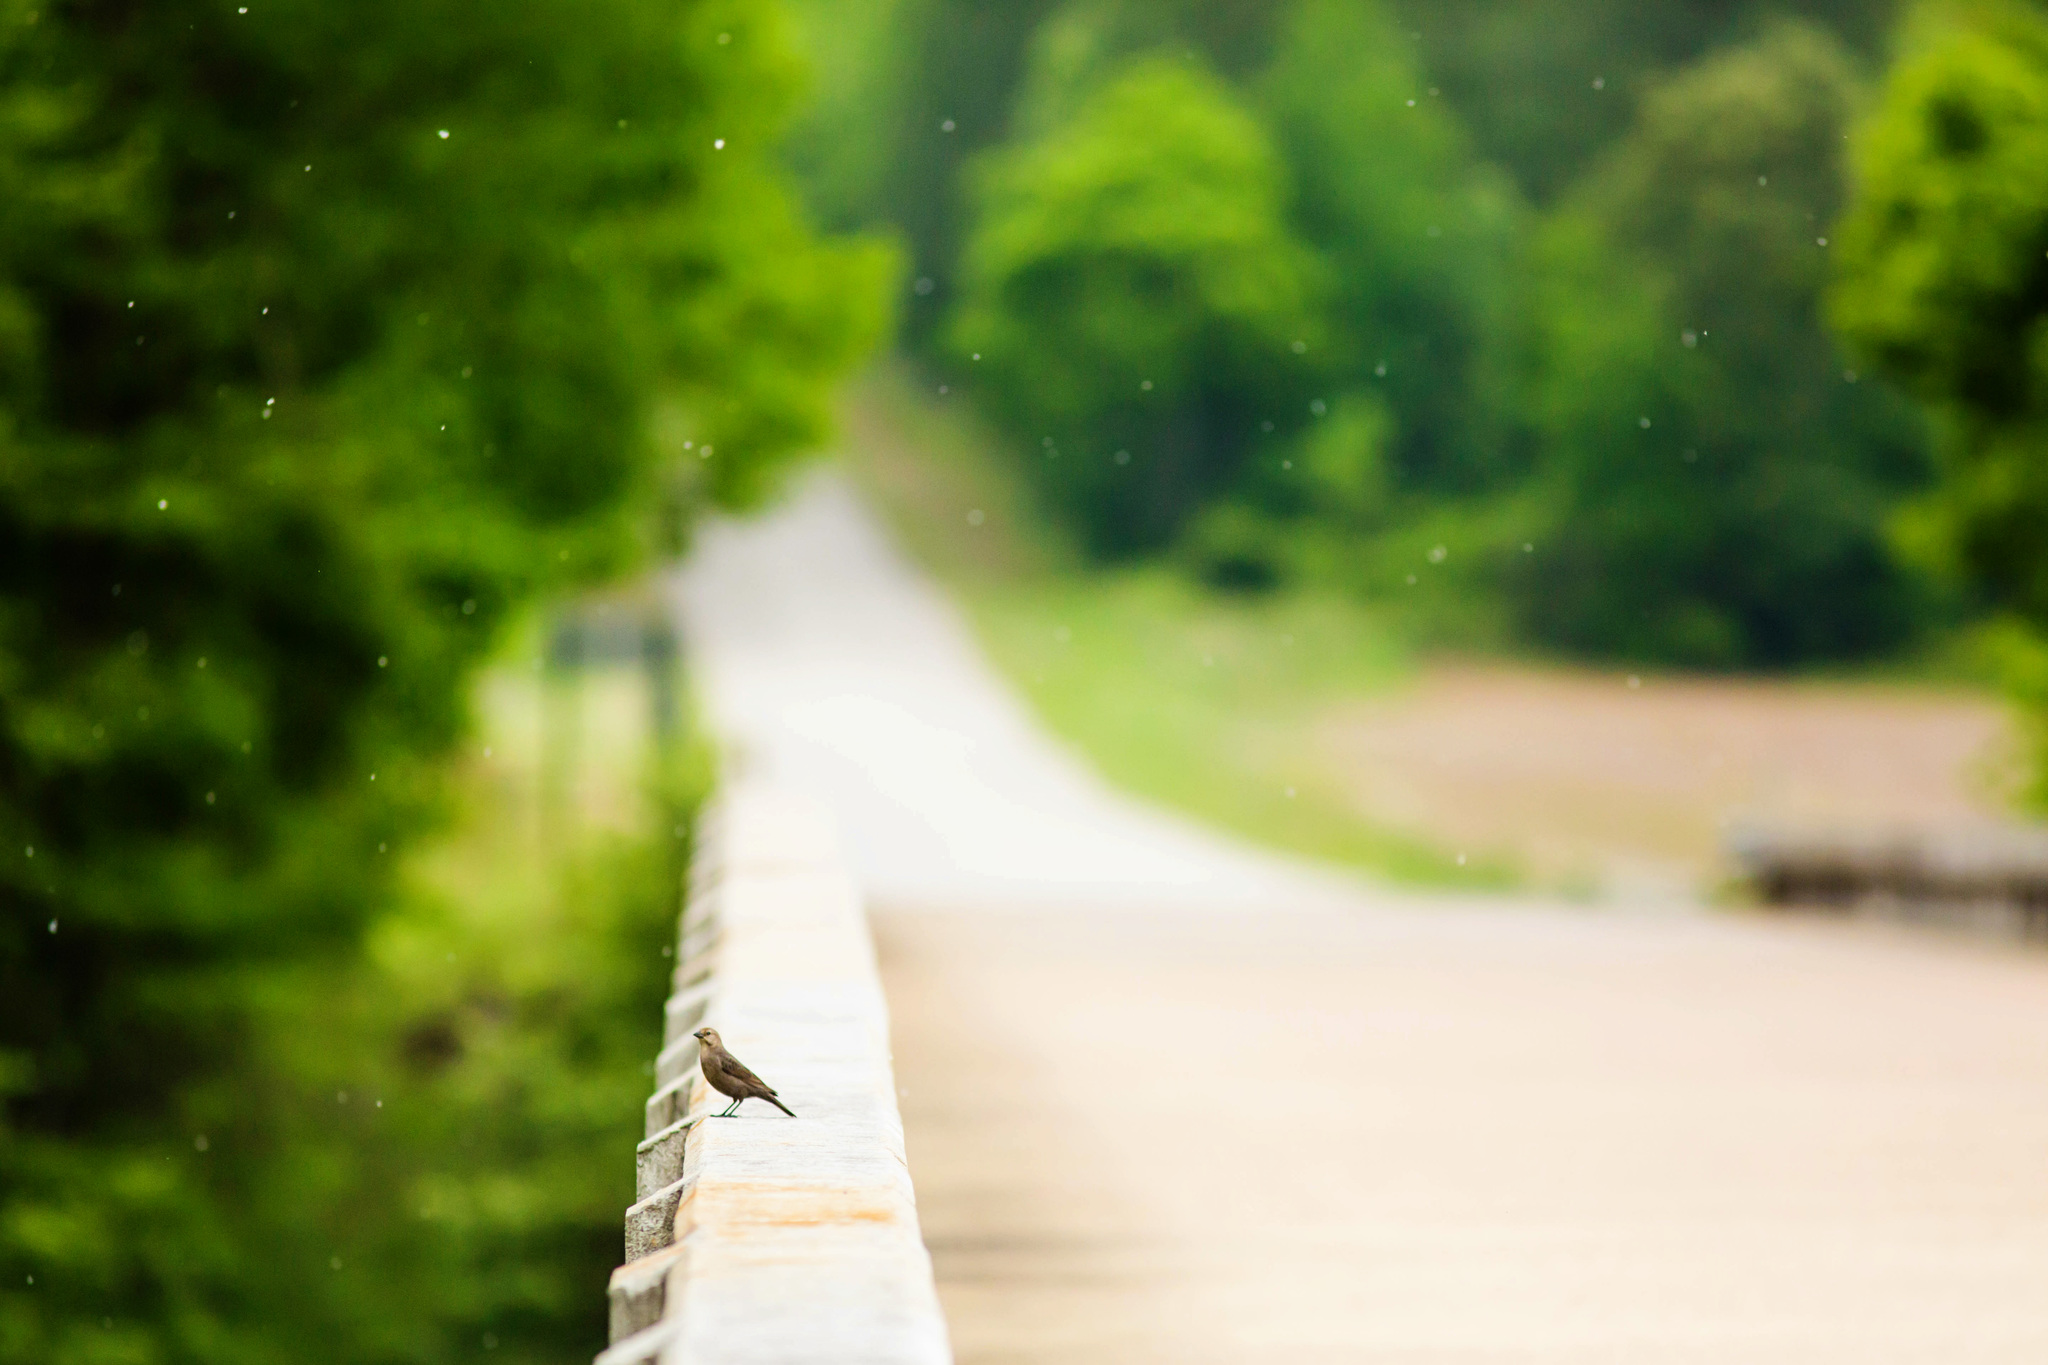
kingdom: Animalia
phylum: Chordata
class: Aves
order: Passeriformes
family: Icteridae
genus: Molothrus
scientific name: Molothrus ater
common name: Brown-headed cowbird
